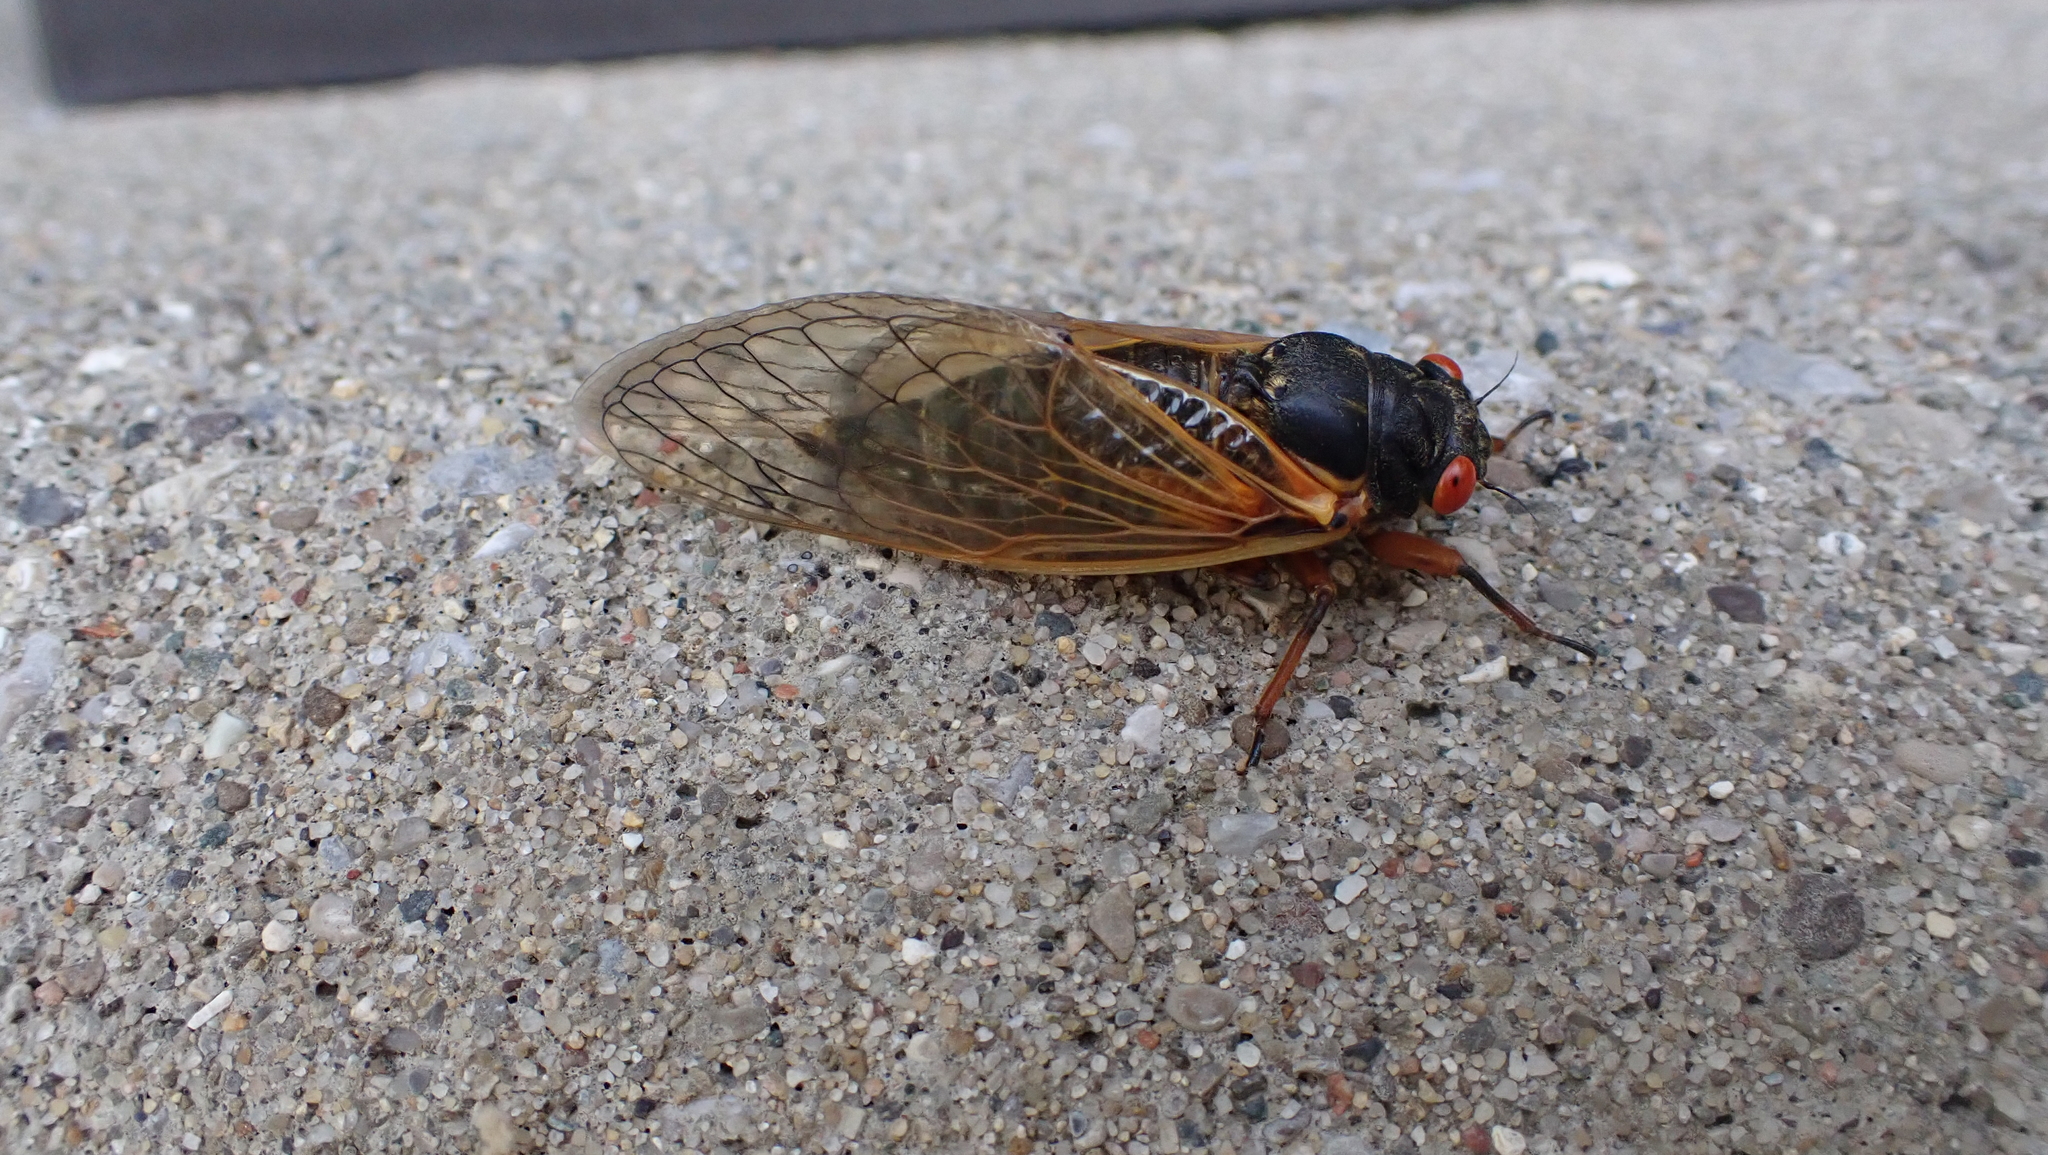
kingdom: Animalia
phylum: Arthropoda
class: Insecta
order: Hemiptera
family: Cicadidae
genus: Magicicada
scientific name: Magicicada cassini
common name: Cassin's 17-year cicada
